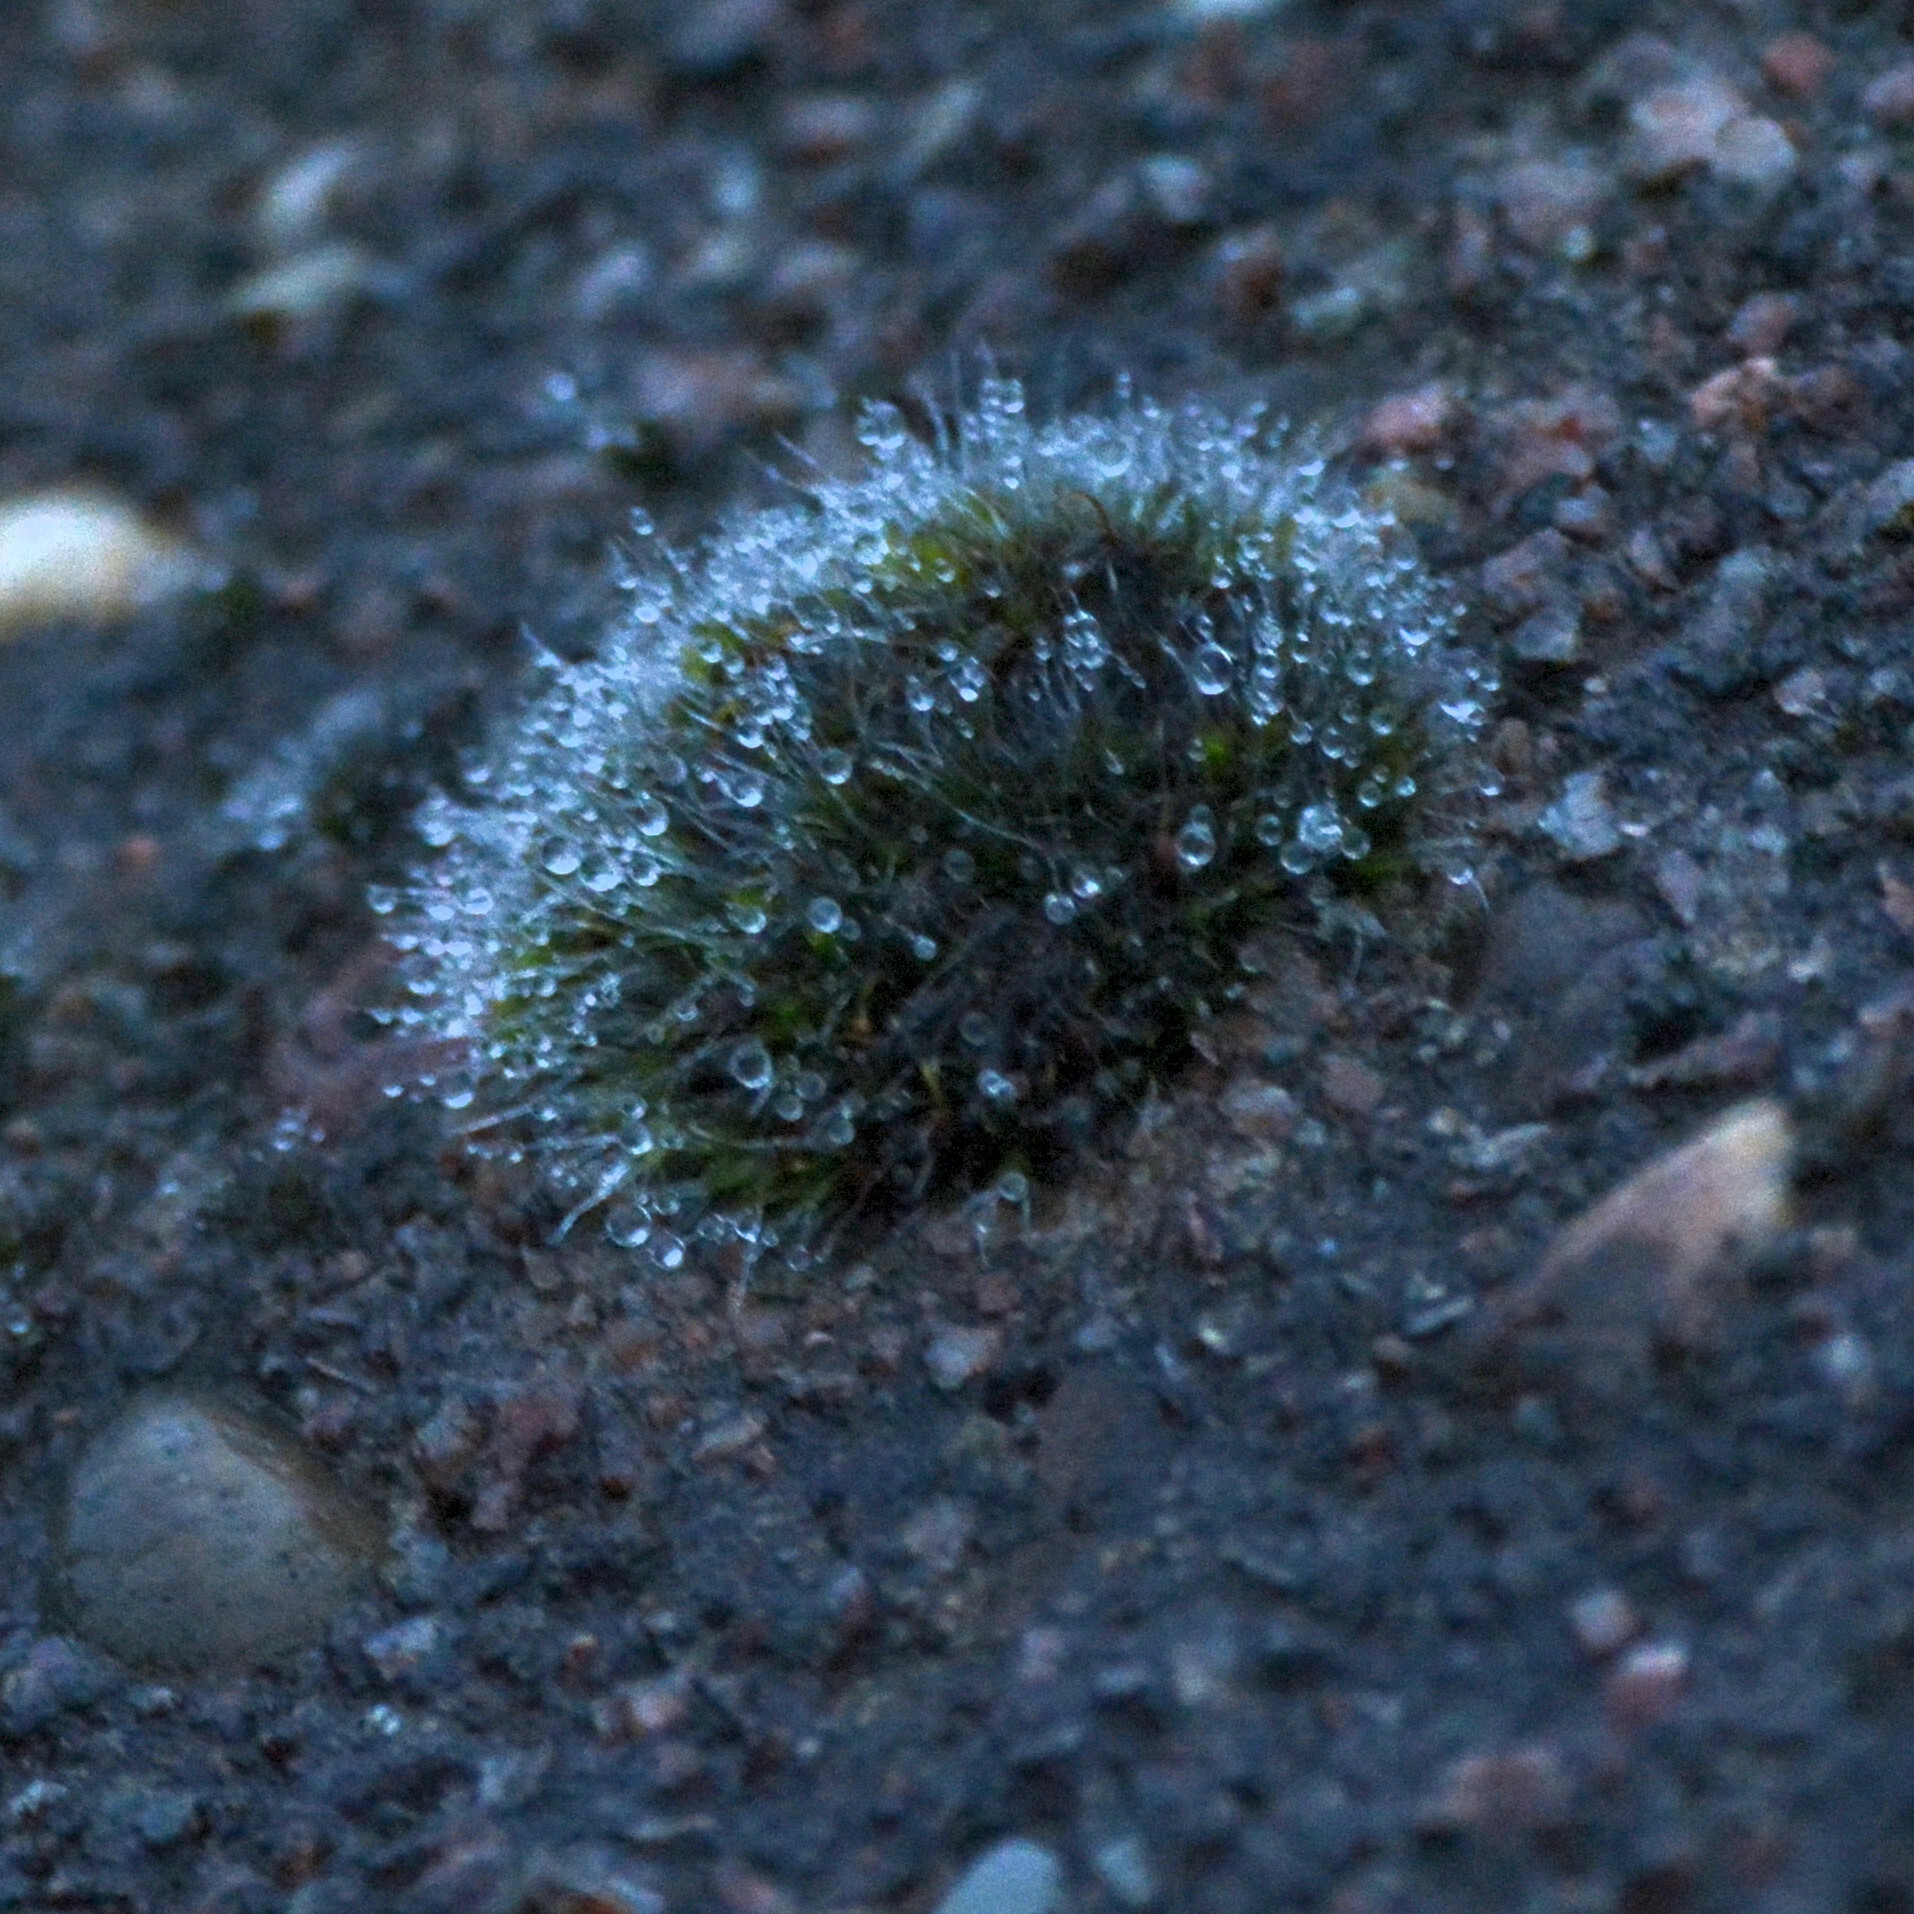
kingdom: Plantae
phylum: Bryophyta
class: Bryopsida
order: Grimmiales
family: Grimmiaceae
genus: Grimmia
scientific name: Grimmia pulvinata
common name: Grey-cushioned grimmia
